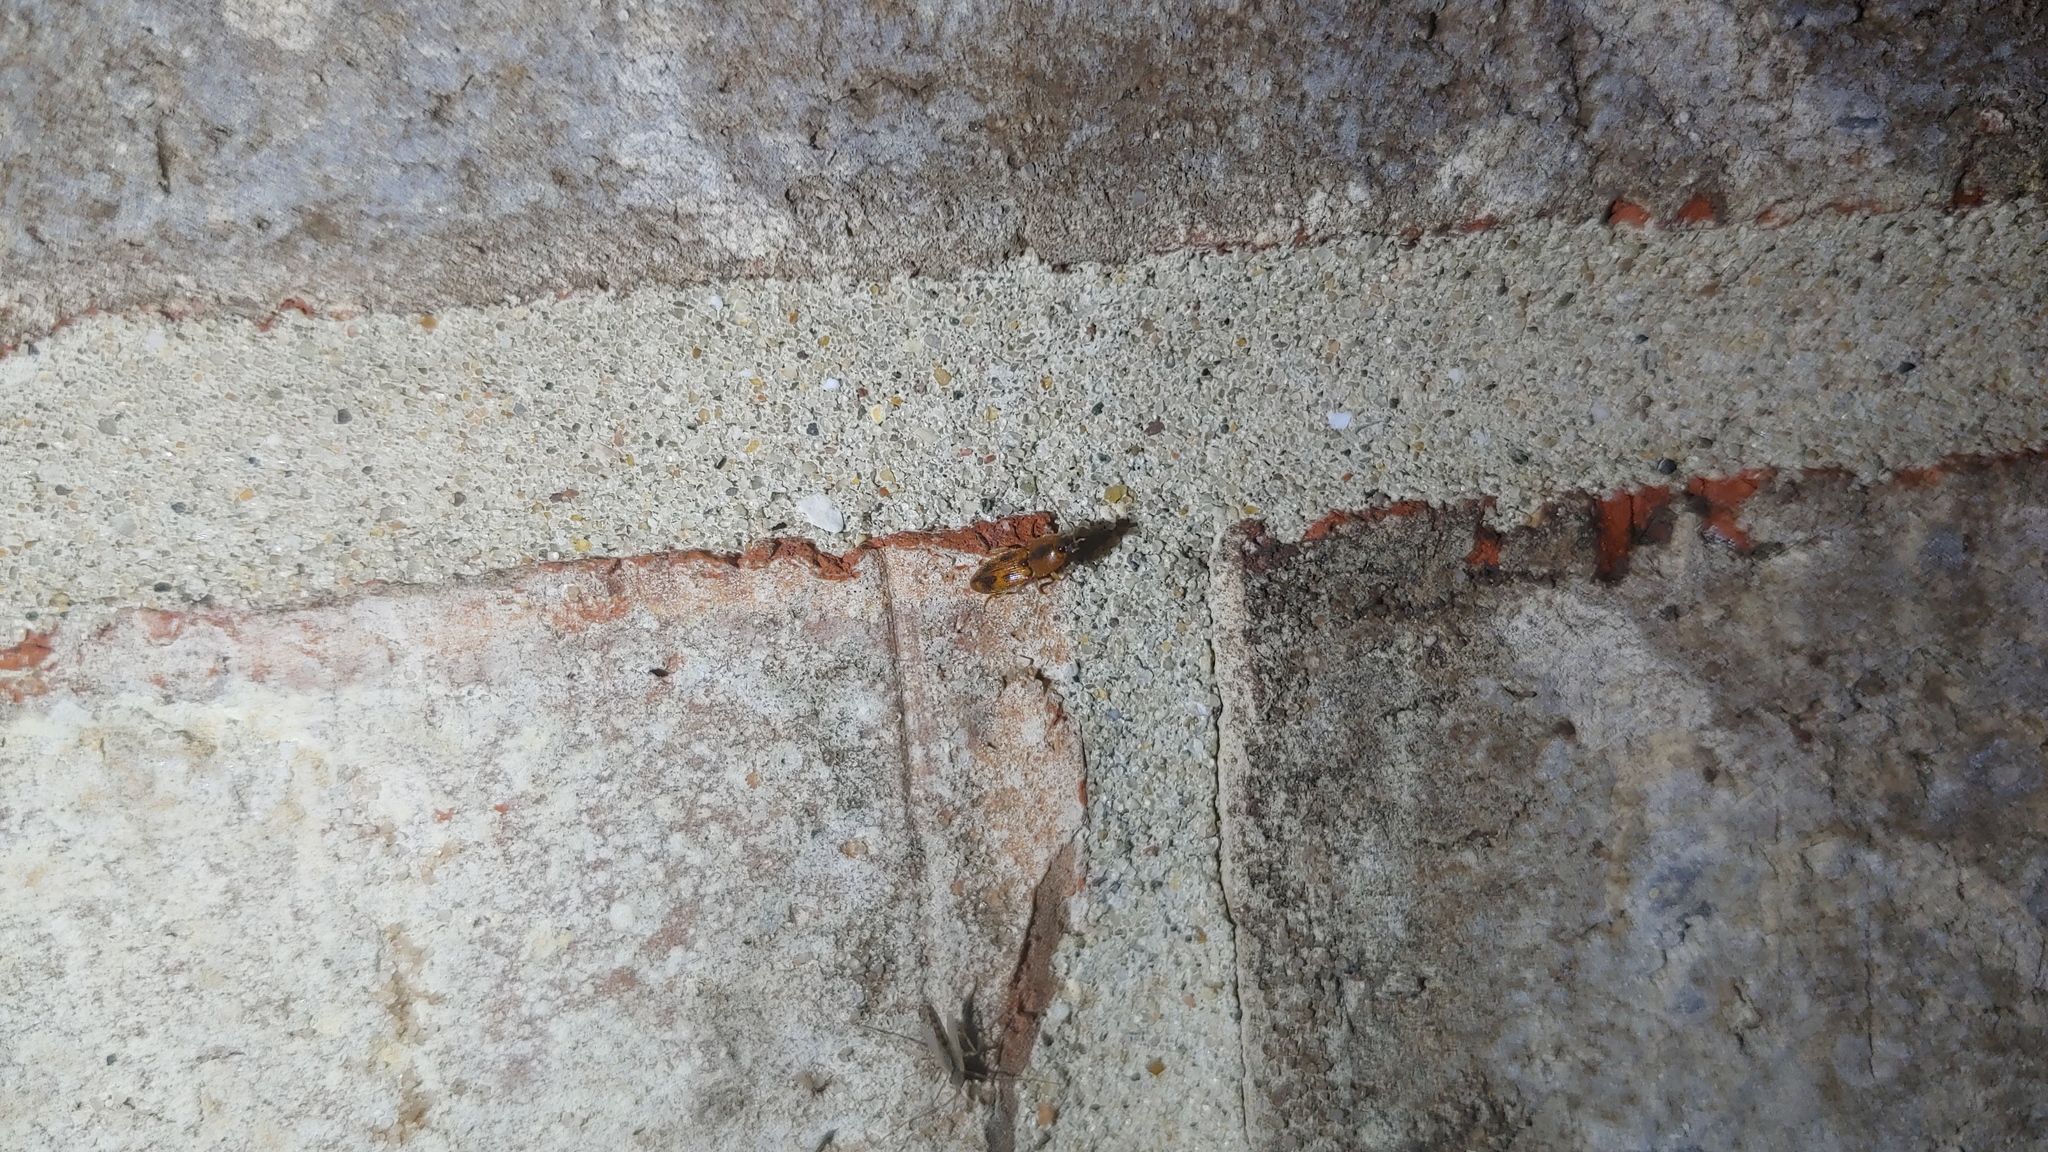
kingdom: Animalia
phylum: Arthropoda
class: Insecta
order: Coleoptera
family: Elateridae
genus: Aeolus
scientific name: Aeolus mellillus
